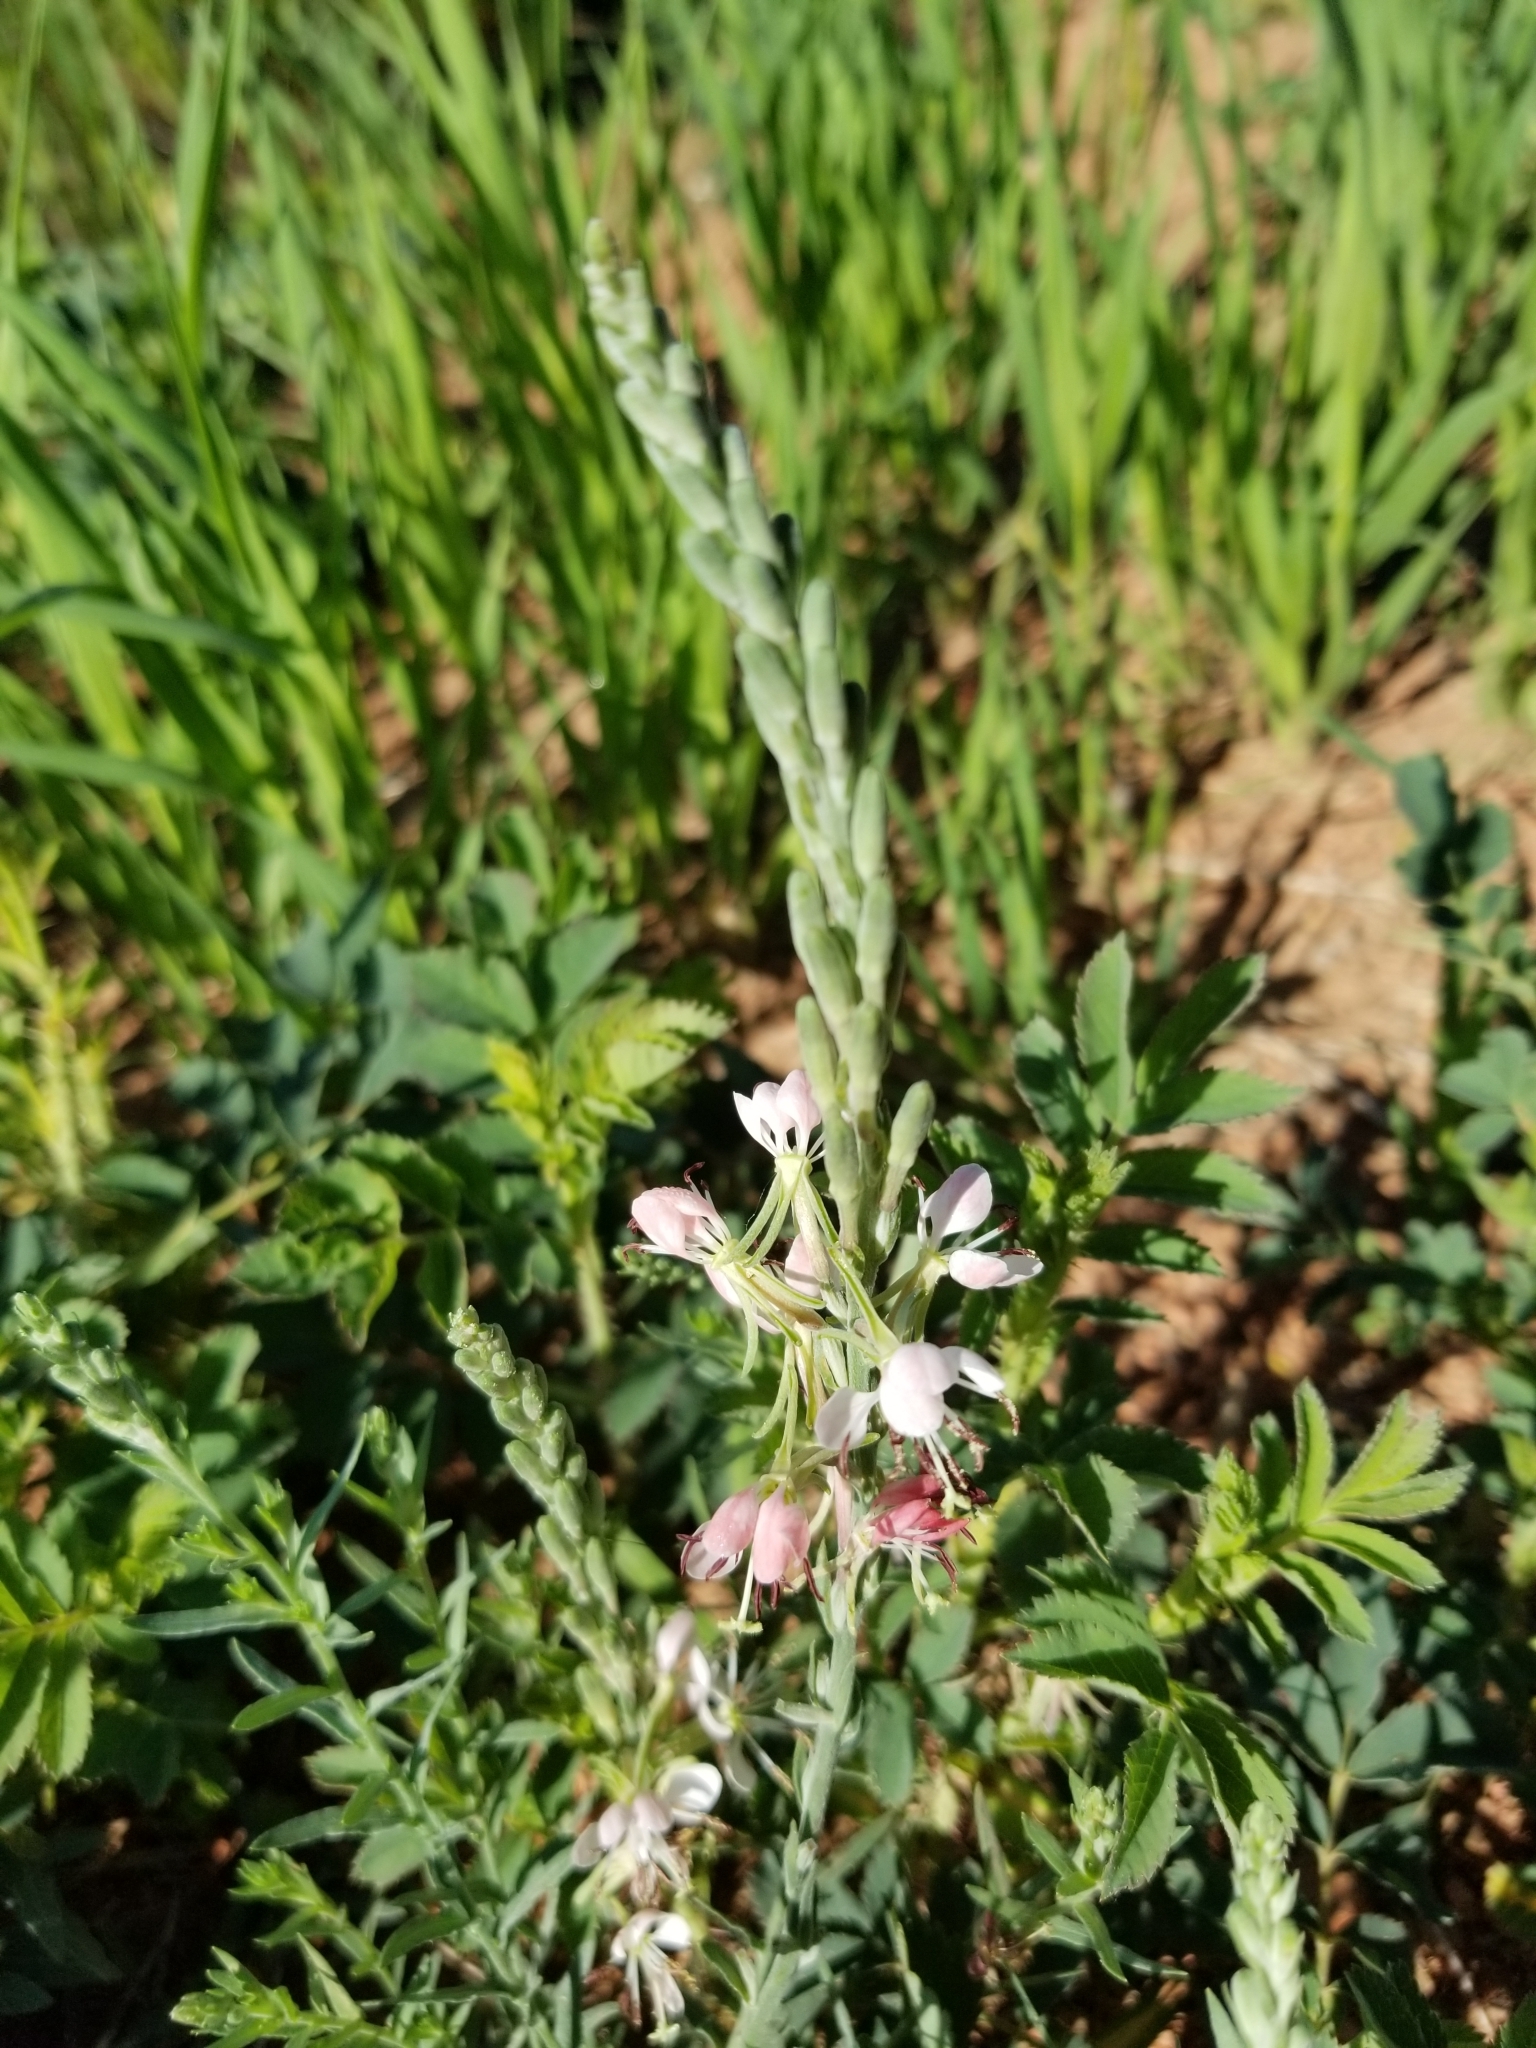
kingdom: Plantae
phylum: Tracheophyta
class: Magnoliopsida
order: Myrtales
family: Onagraceae
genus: Oenothera
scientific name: Oenothera suffrutescens
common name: Scarlet beeblossom
